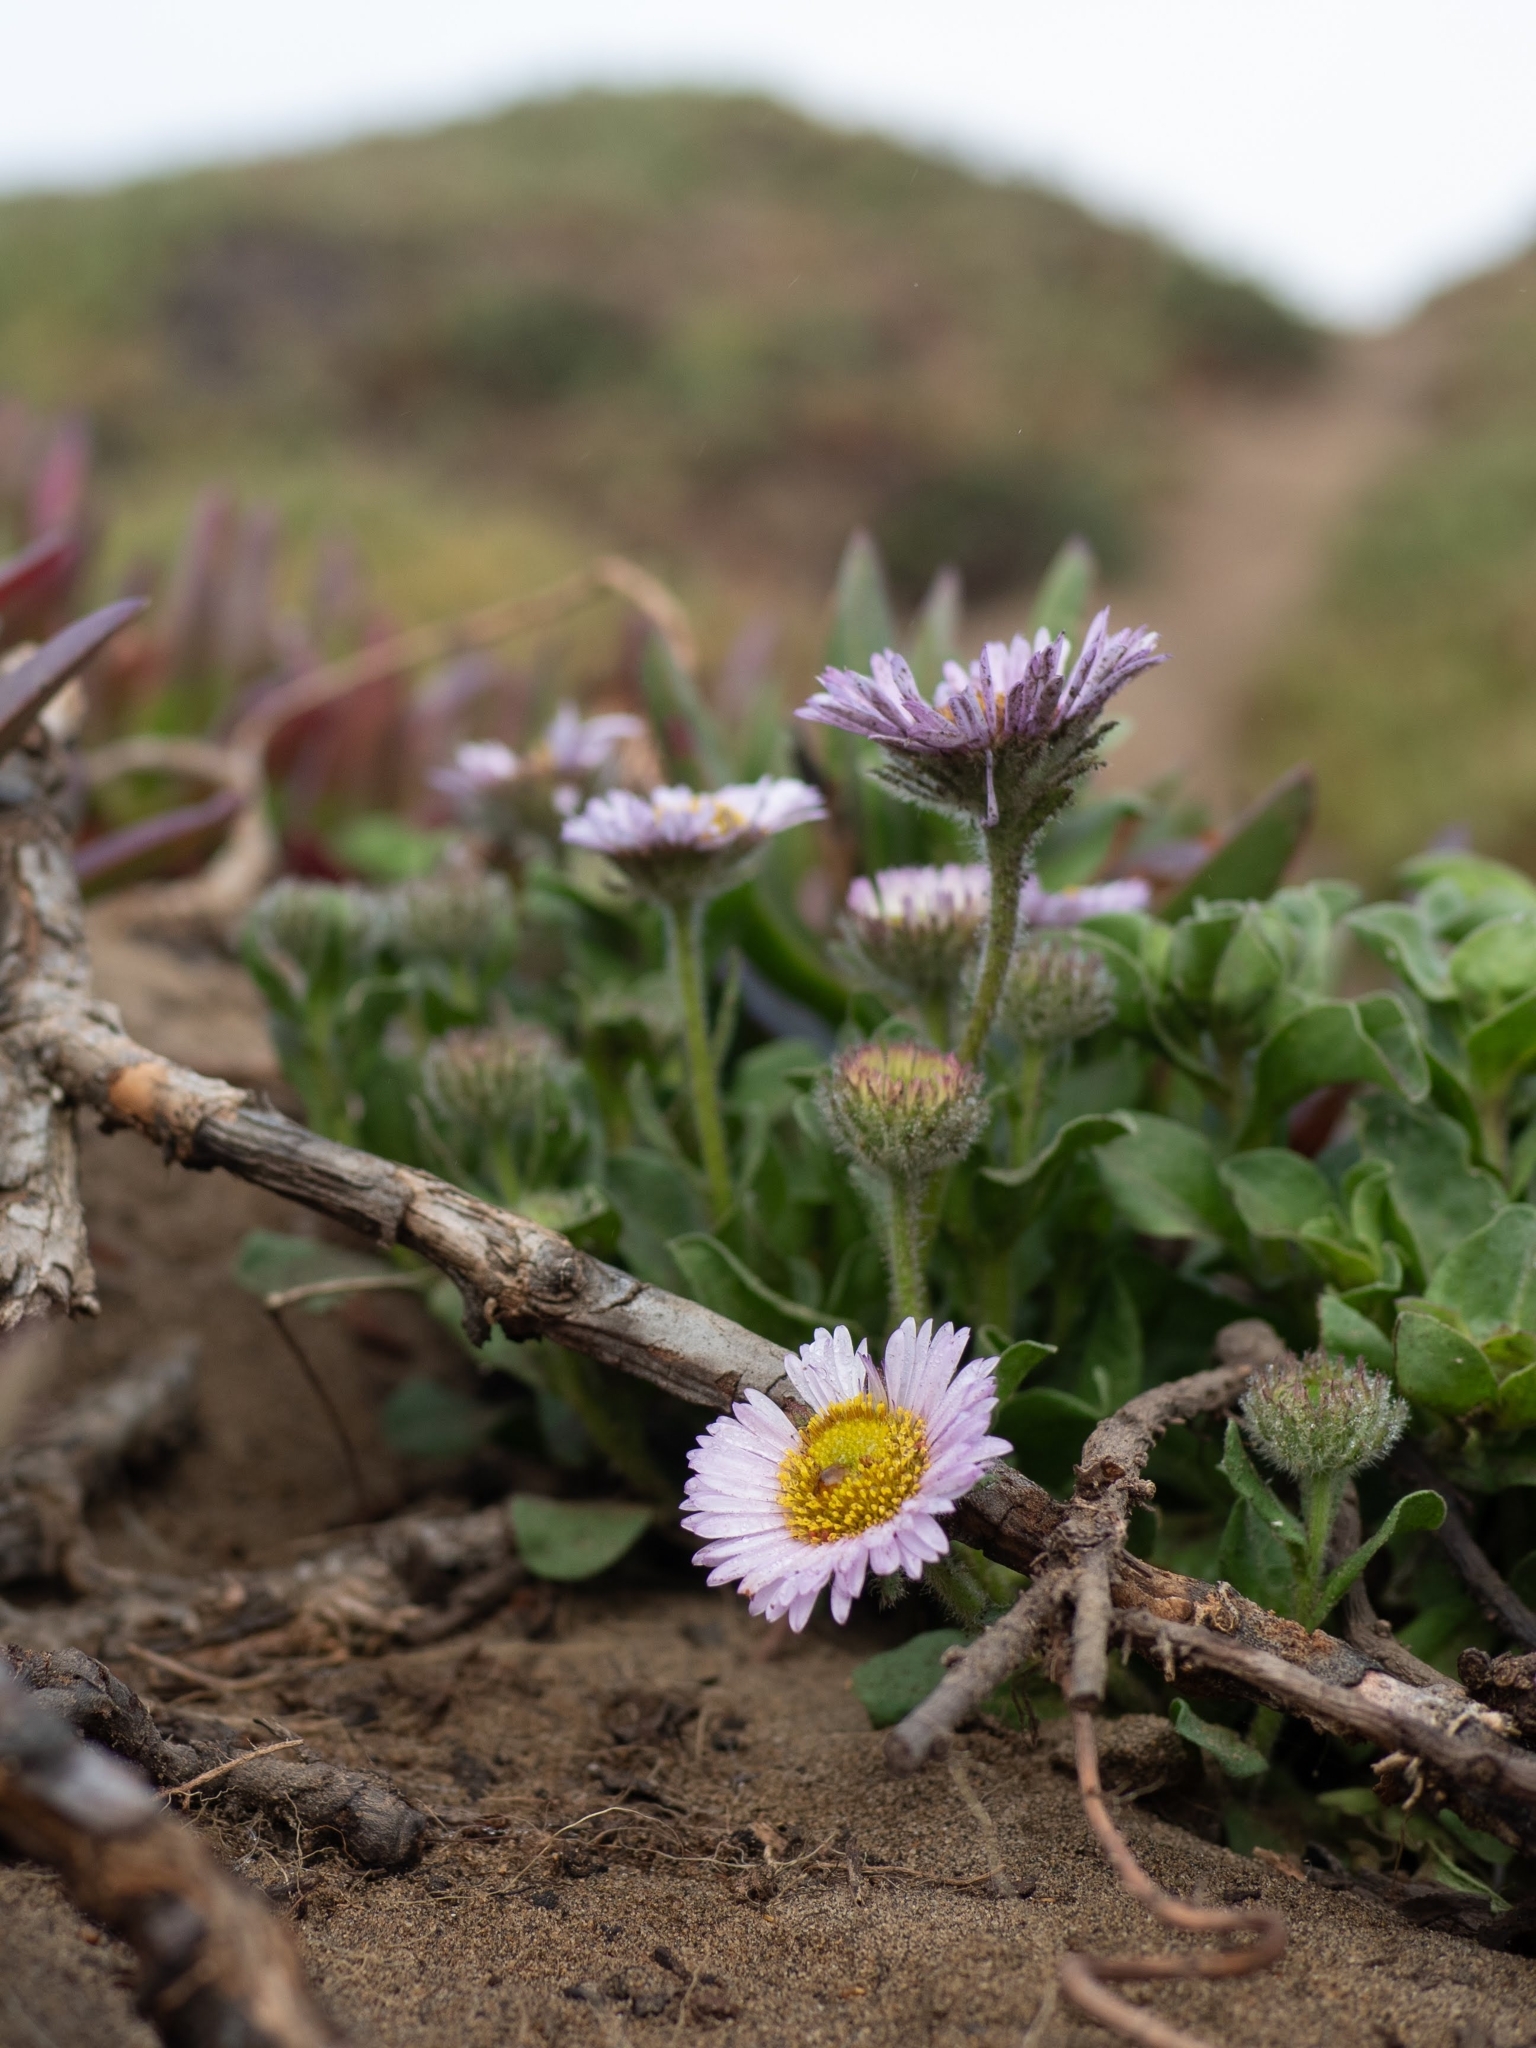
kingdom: Plantae
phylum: Tracheophyta
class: Magnoliopsida
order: Asterales
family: Asteraceae
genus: Erigeron
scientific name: Erigeron glaucus
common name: Seaside daisy
